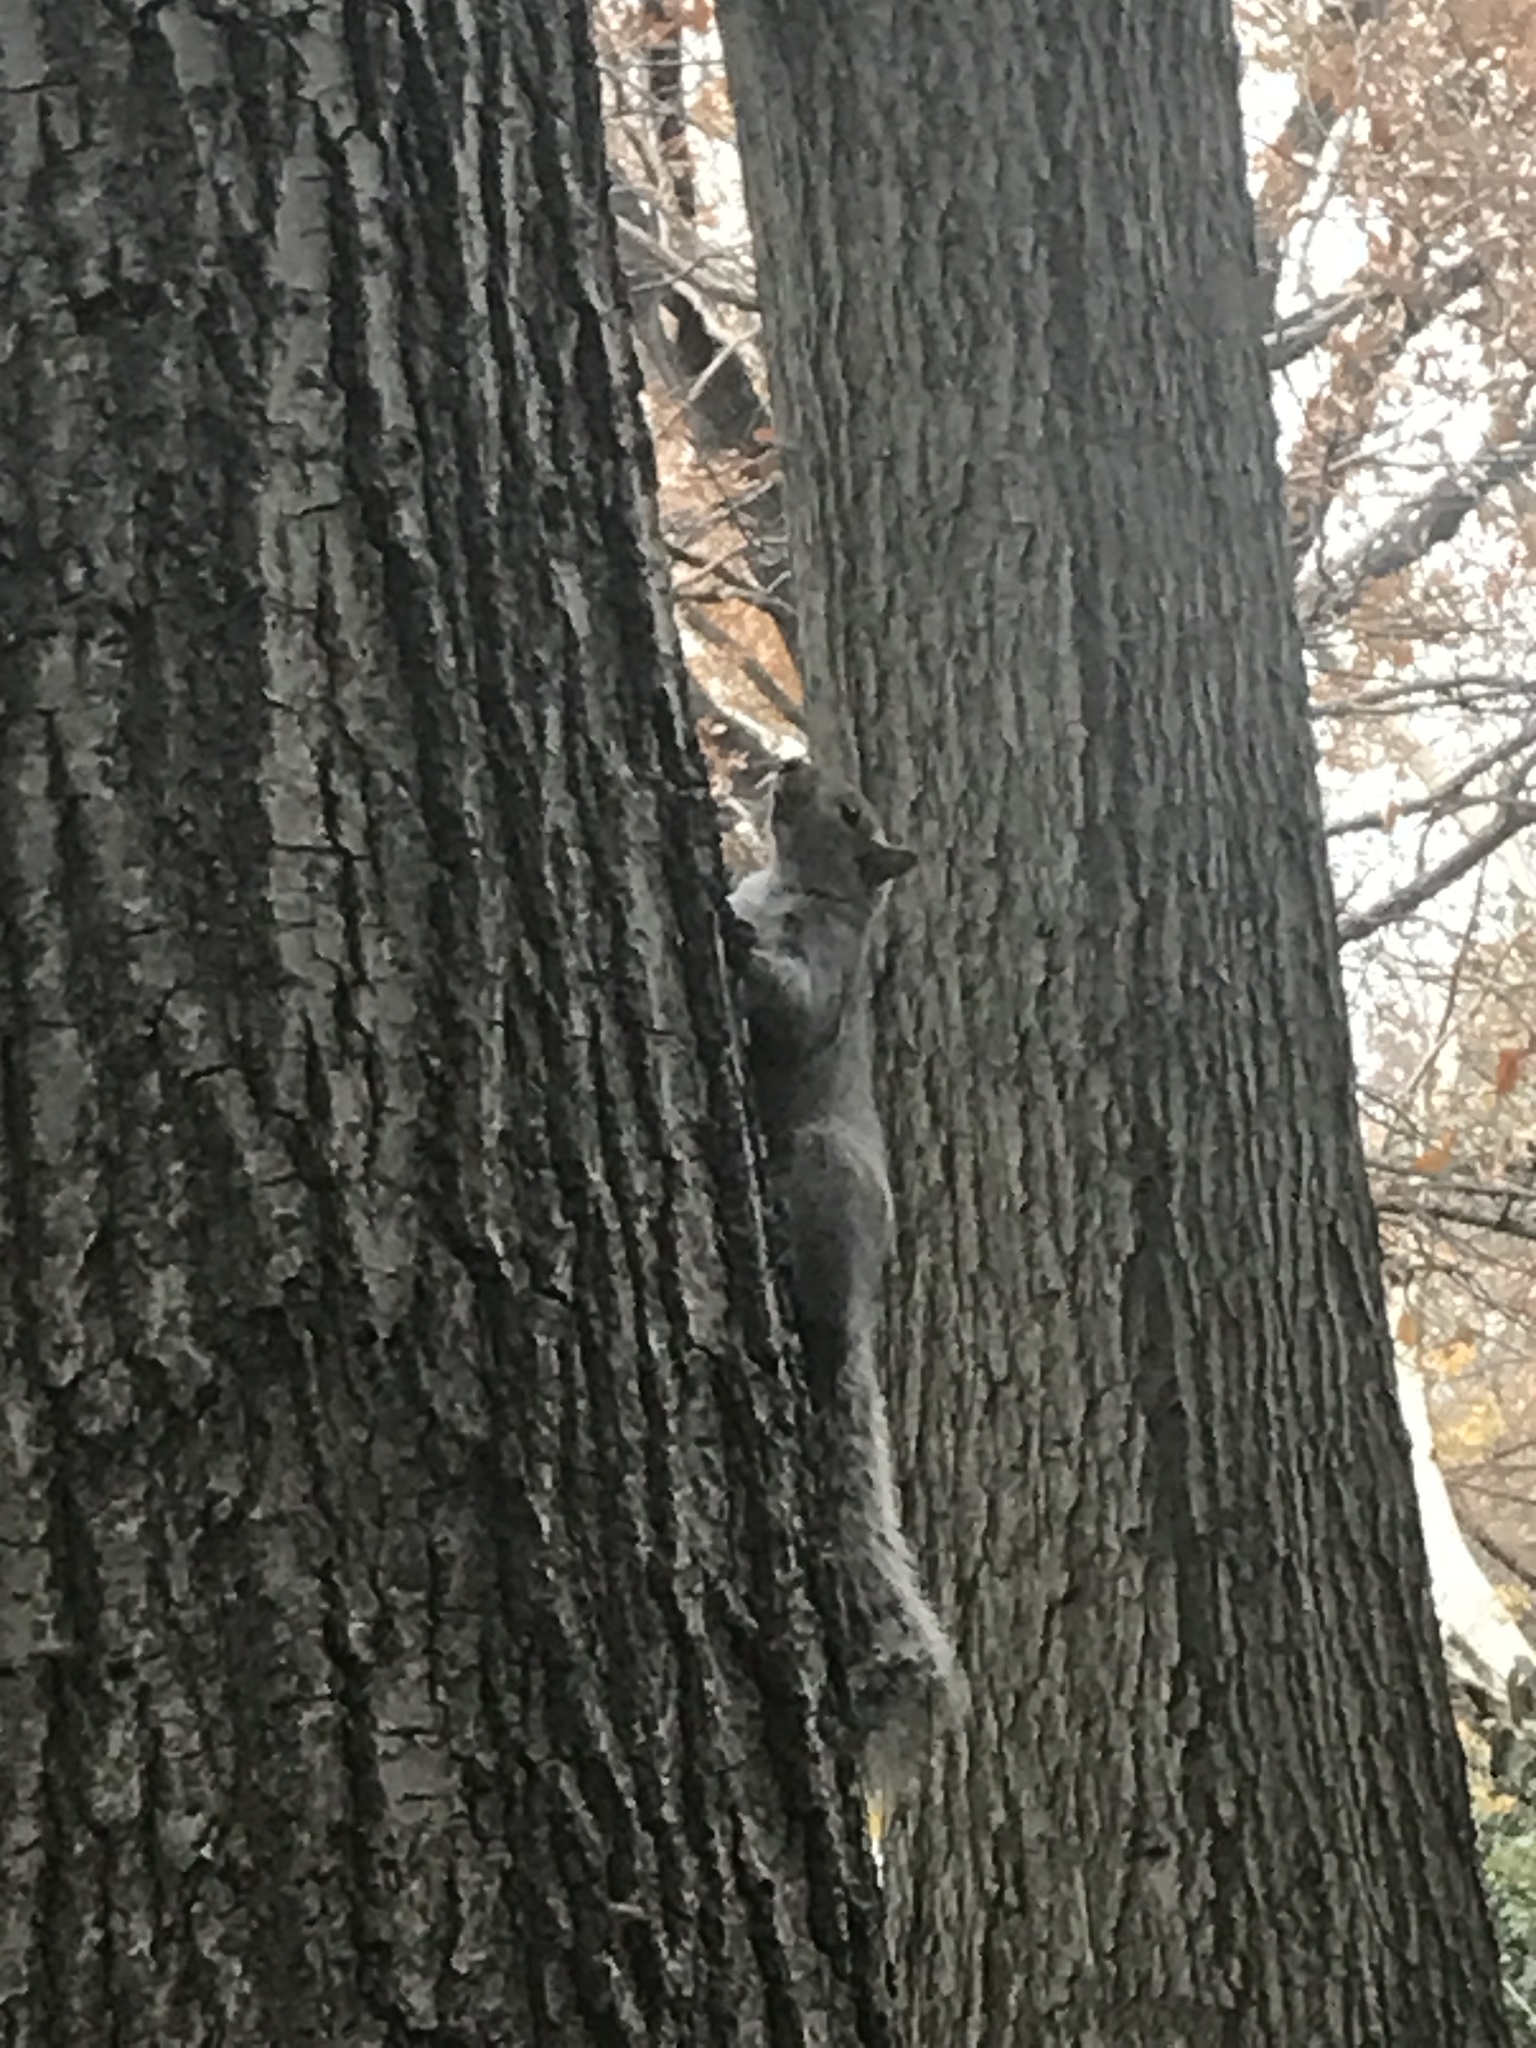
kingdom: Animalia
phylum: Chordata
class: Mammalia
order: Rodentia
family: Sciuridae
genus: Sciurus
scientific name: Sciurus carolinensis
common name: Eastern gray squirrel
